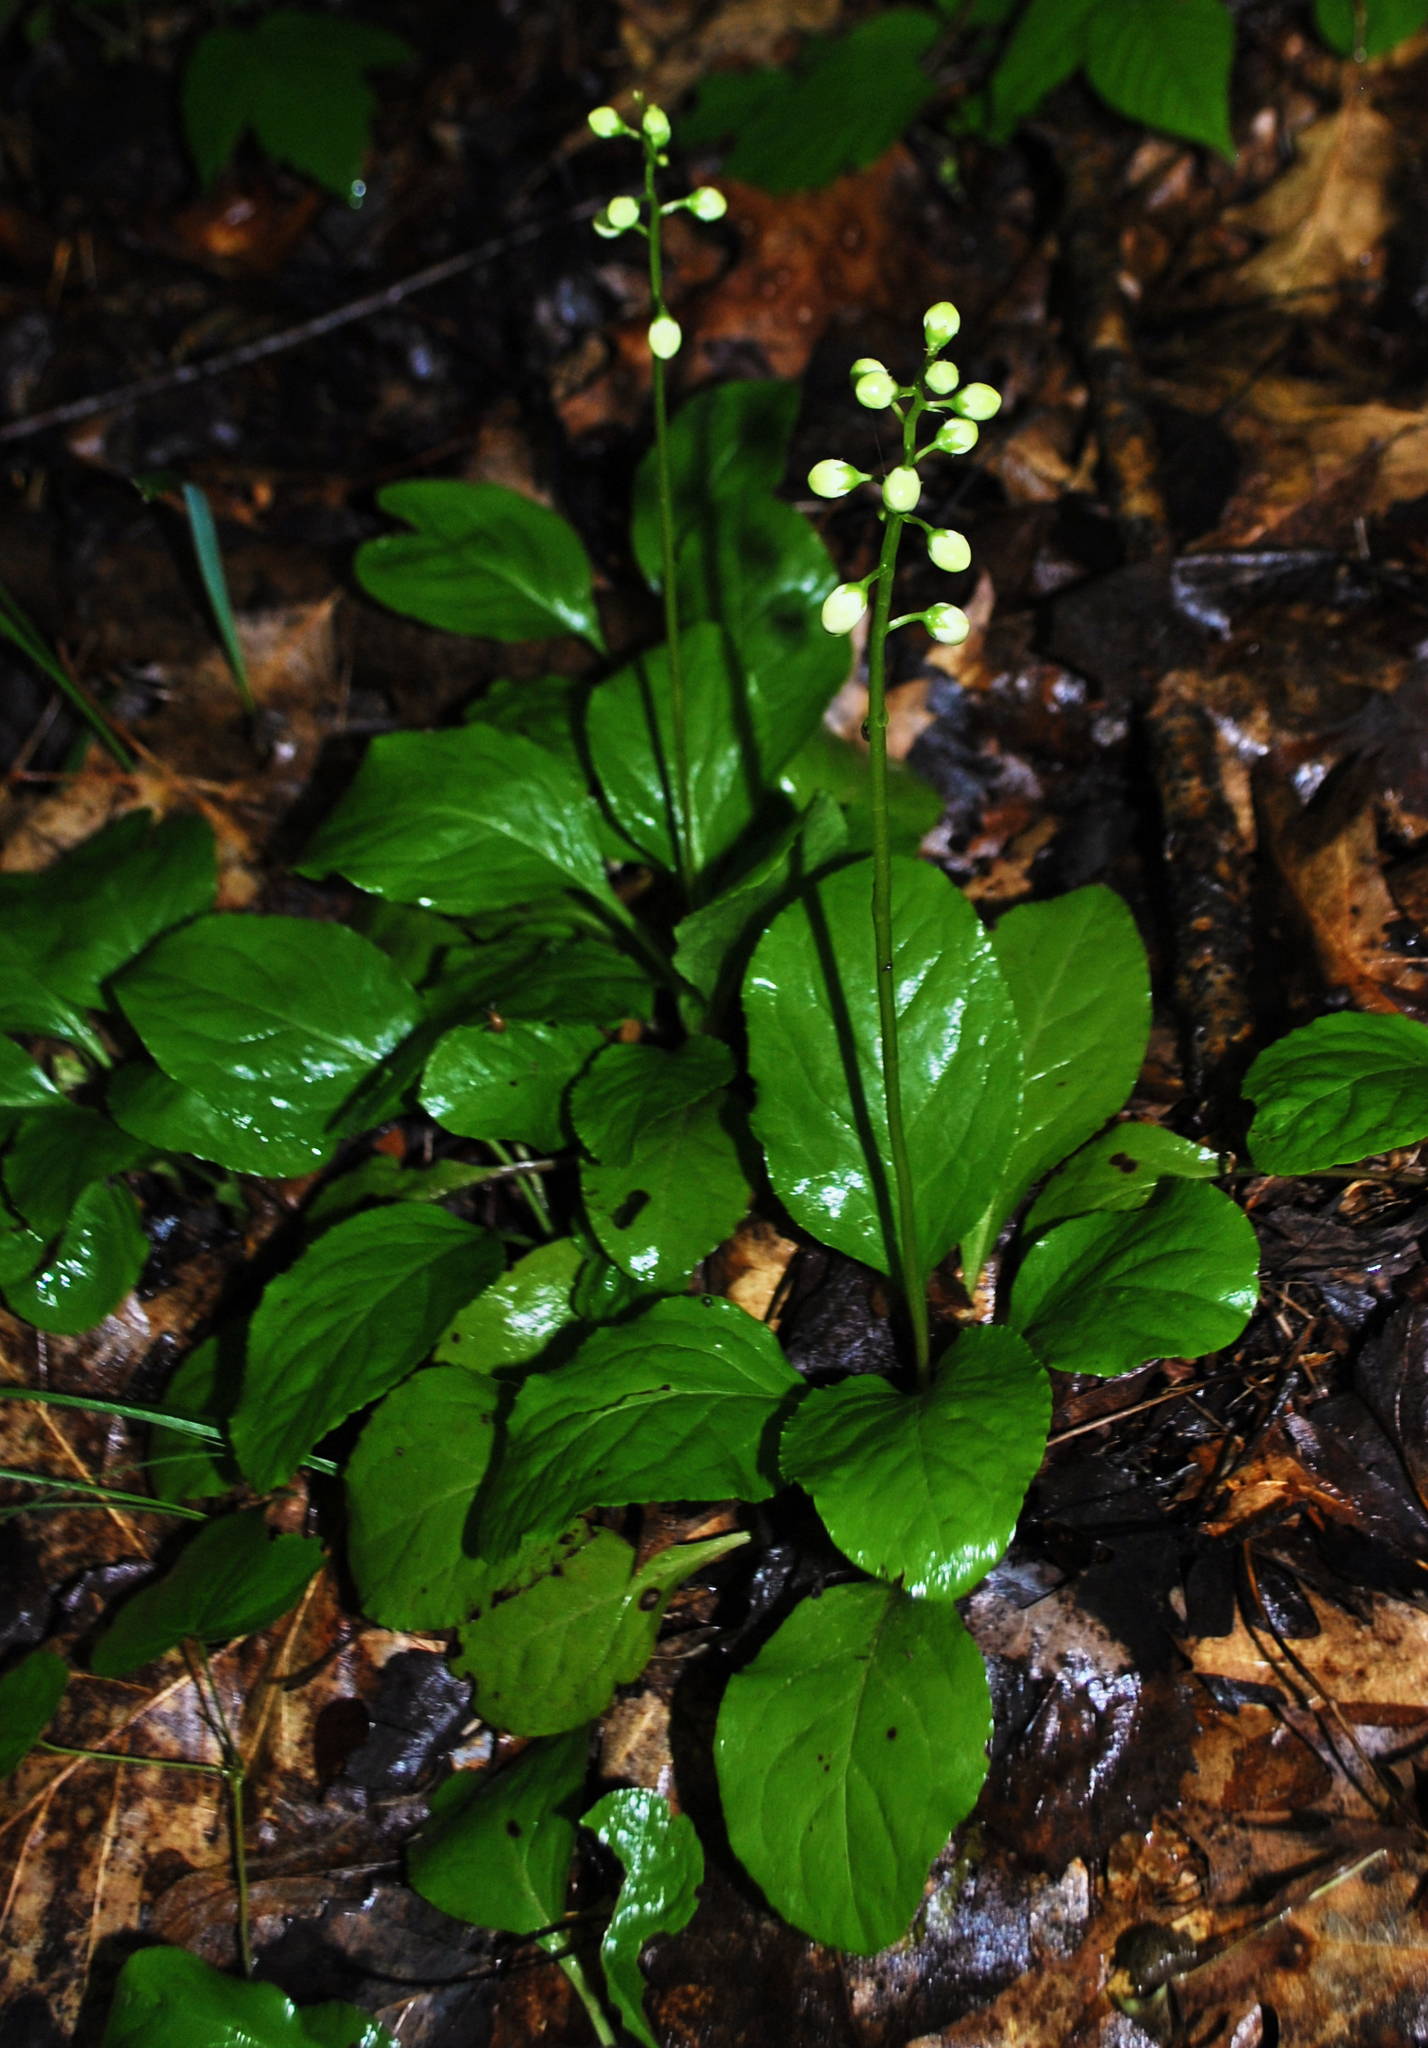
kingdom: Plantae
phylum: Tracheophyta
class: Magnoliopsida
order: Ericales
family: Ericaceae
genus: Pyrola
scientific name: Pyrola elliptica
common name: Shinleaf
